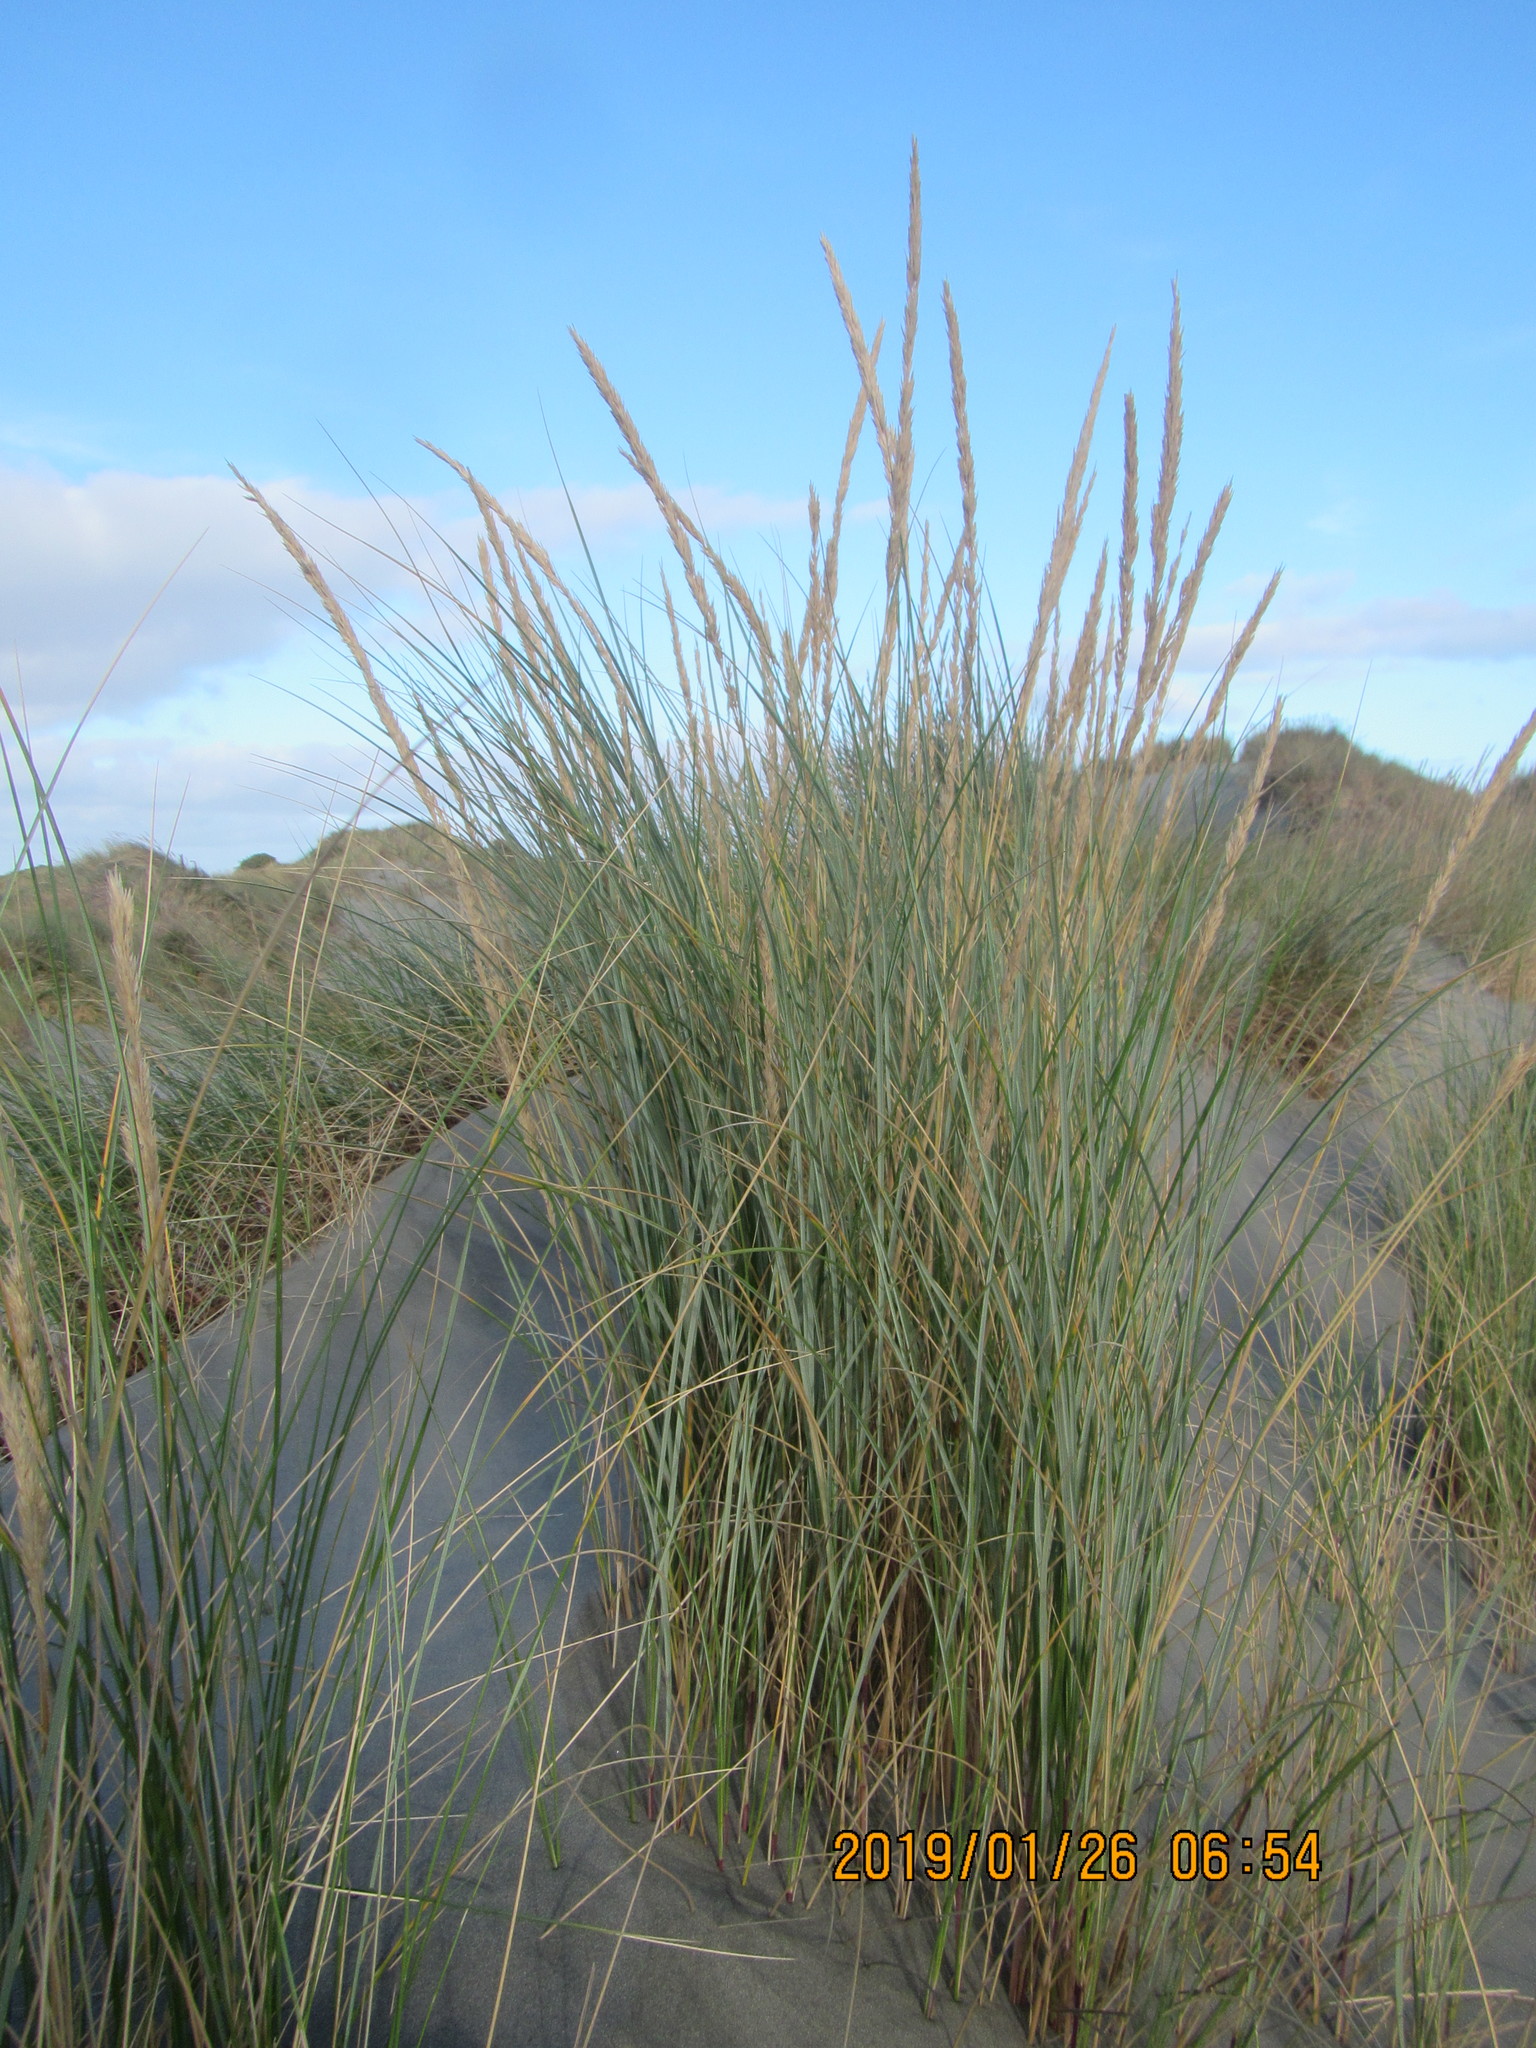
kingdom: Plantae
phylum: Tracheophyta
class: Liliopsida
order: Poales
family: Poaceae
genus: Calamagrostis
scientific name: Calamagrostis arenaria
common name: European beachgrass
